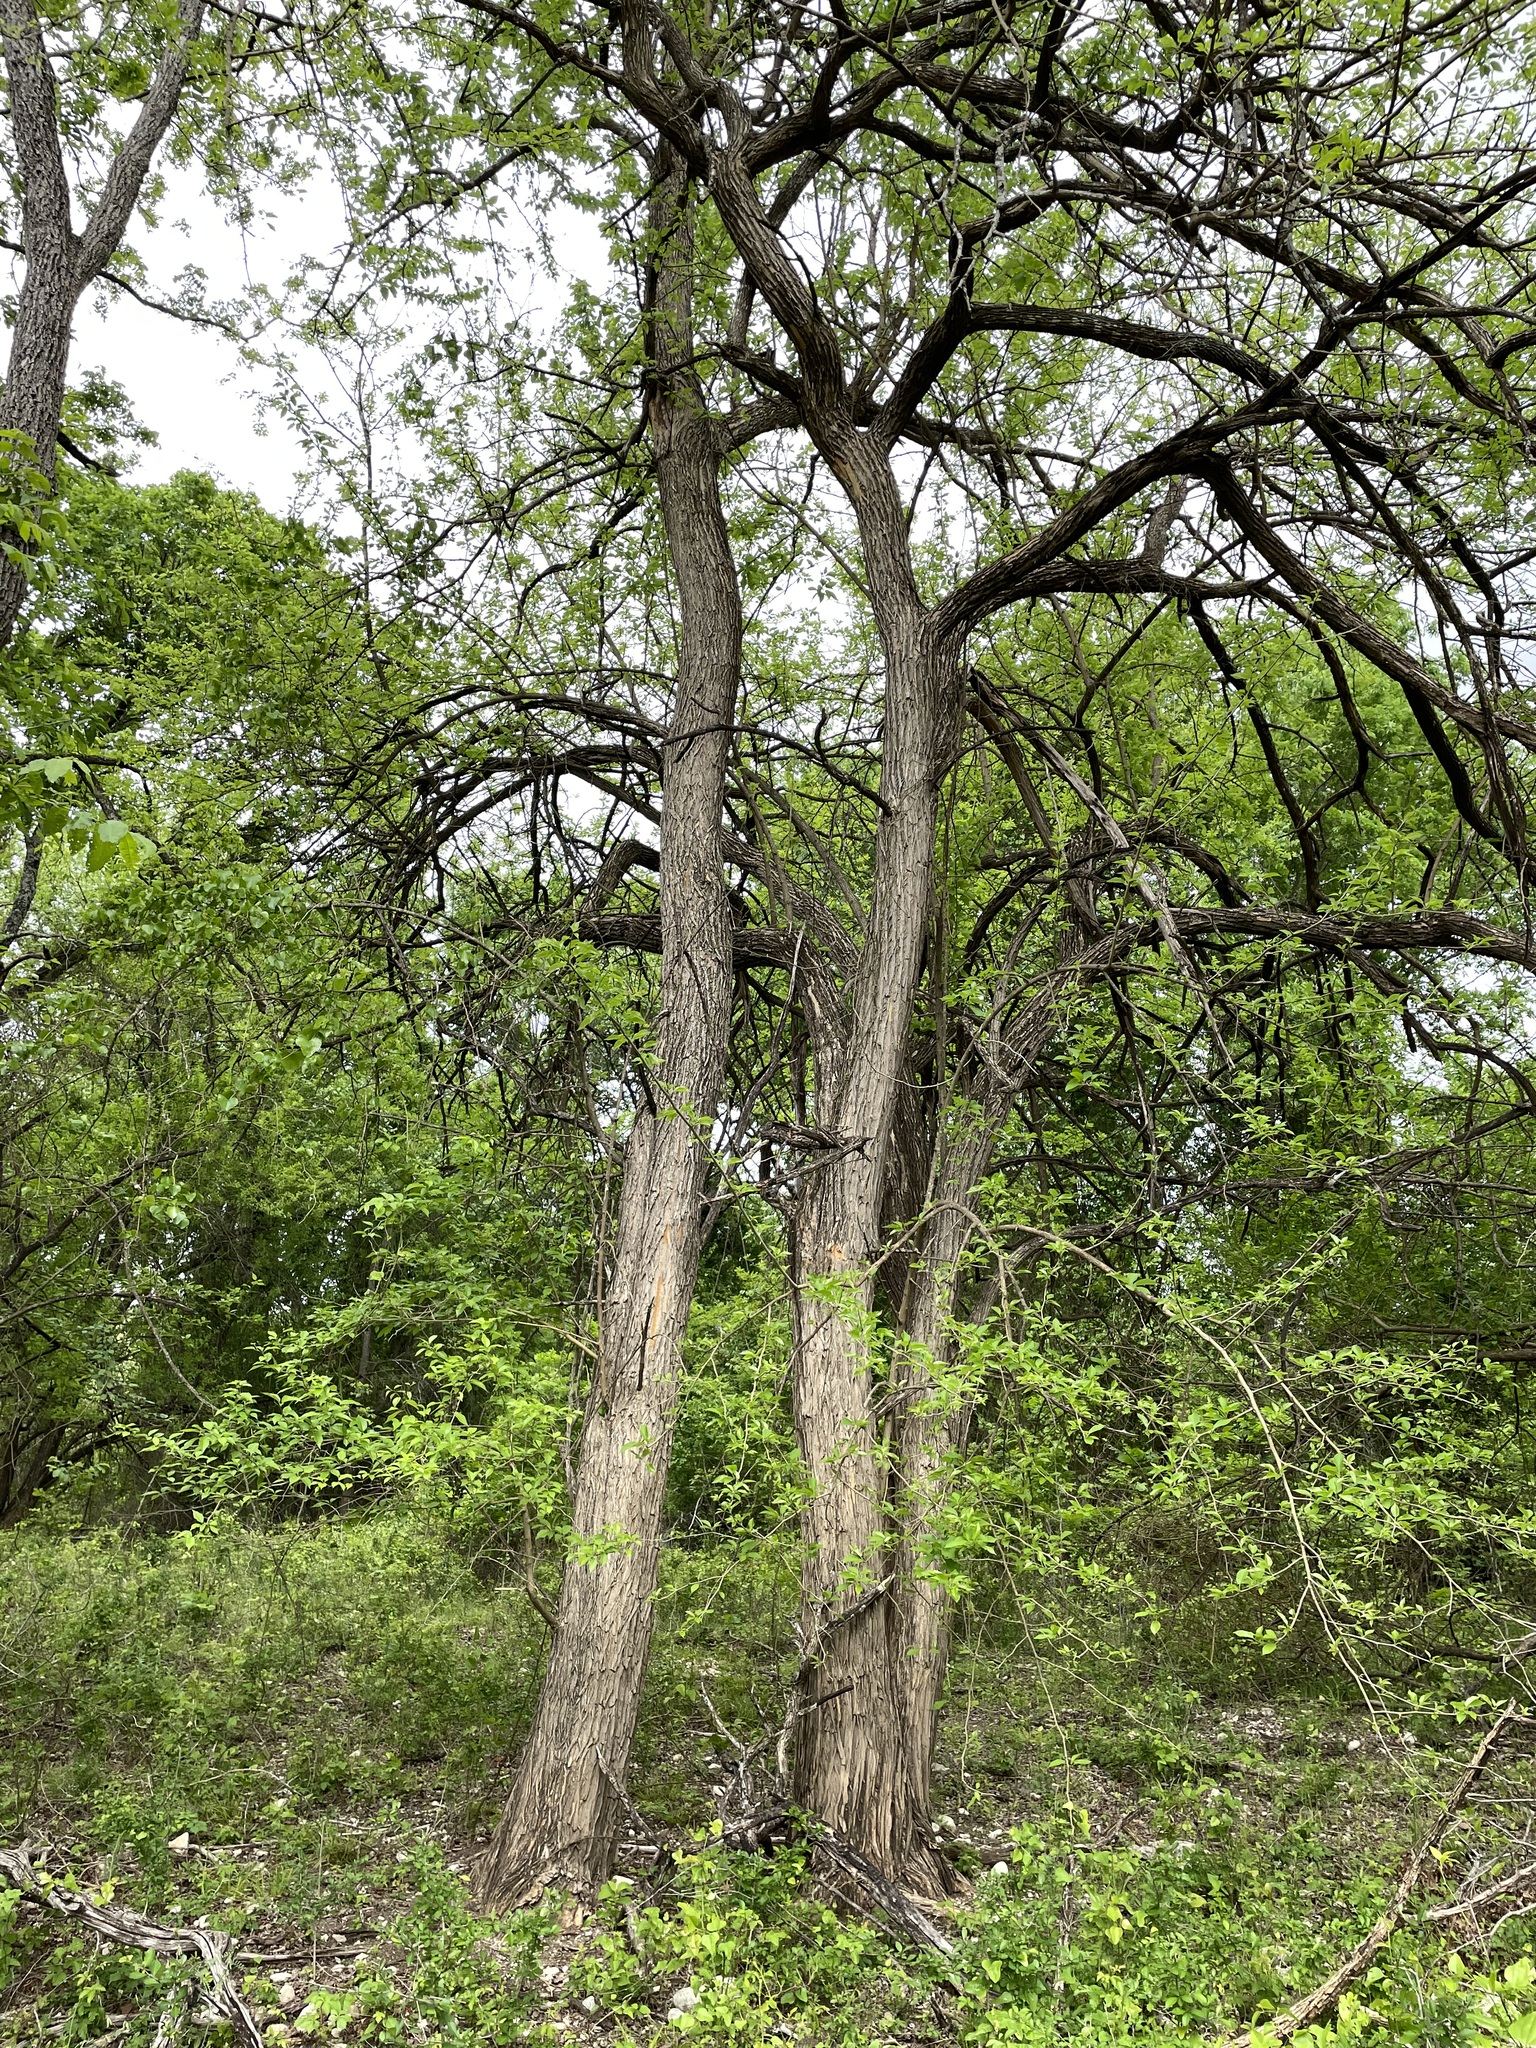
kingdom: Plantae
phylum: Tracheophyta
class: Magnoliopsida
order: Rosales
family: Moraceae
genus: Maclura
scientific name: Maclura pomifera
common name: Osage-orange
